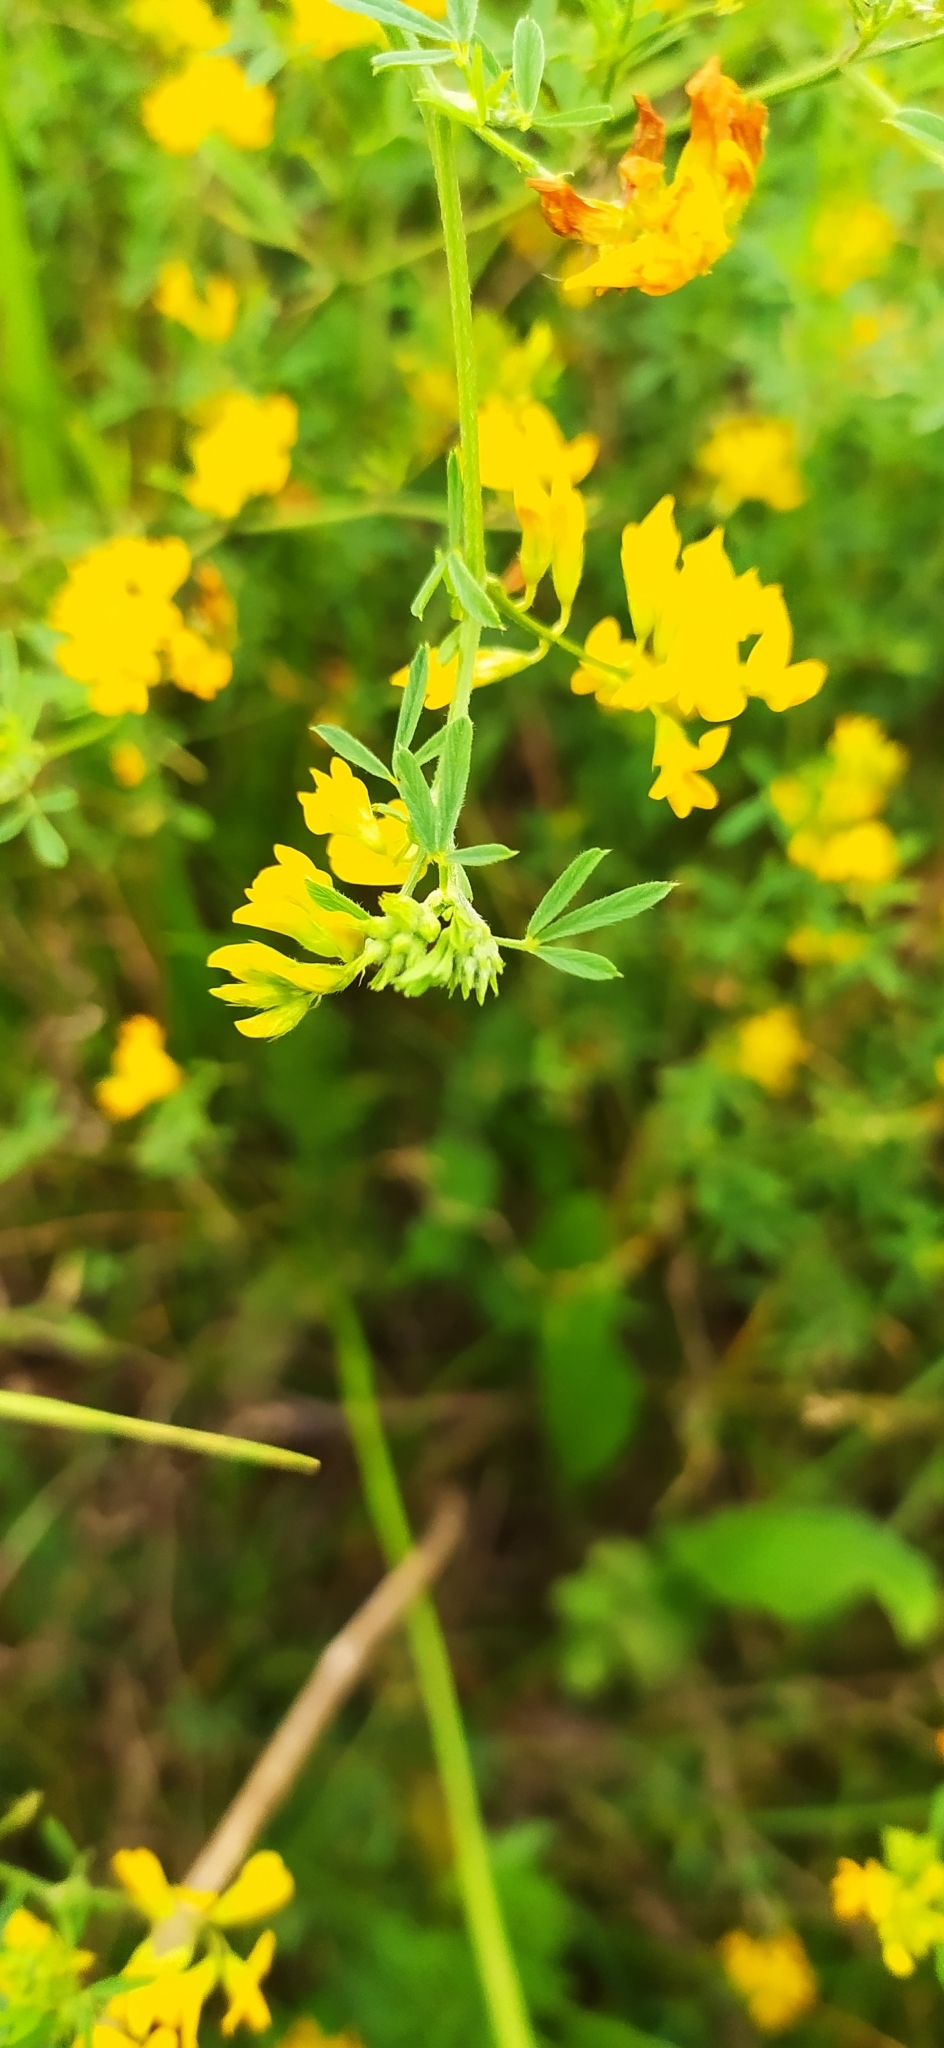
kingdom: Plantae
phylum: Tracheophyta
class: Magnoliopsida
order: Fabales
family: Fabaceae
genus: Medicago
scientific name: Medicago falcata
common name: Sickle medick
